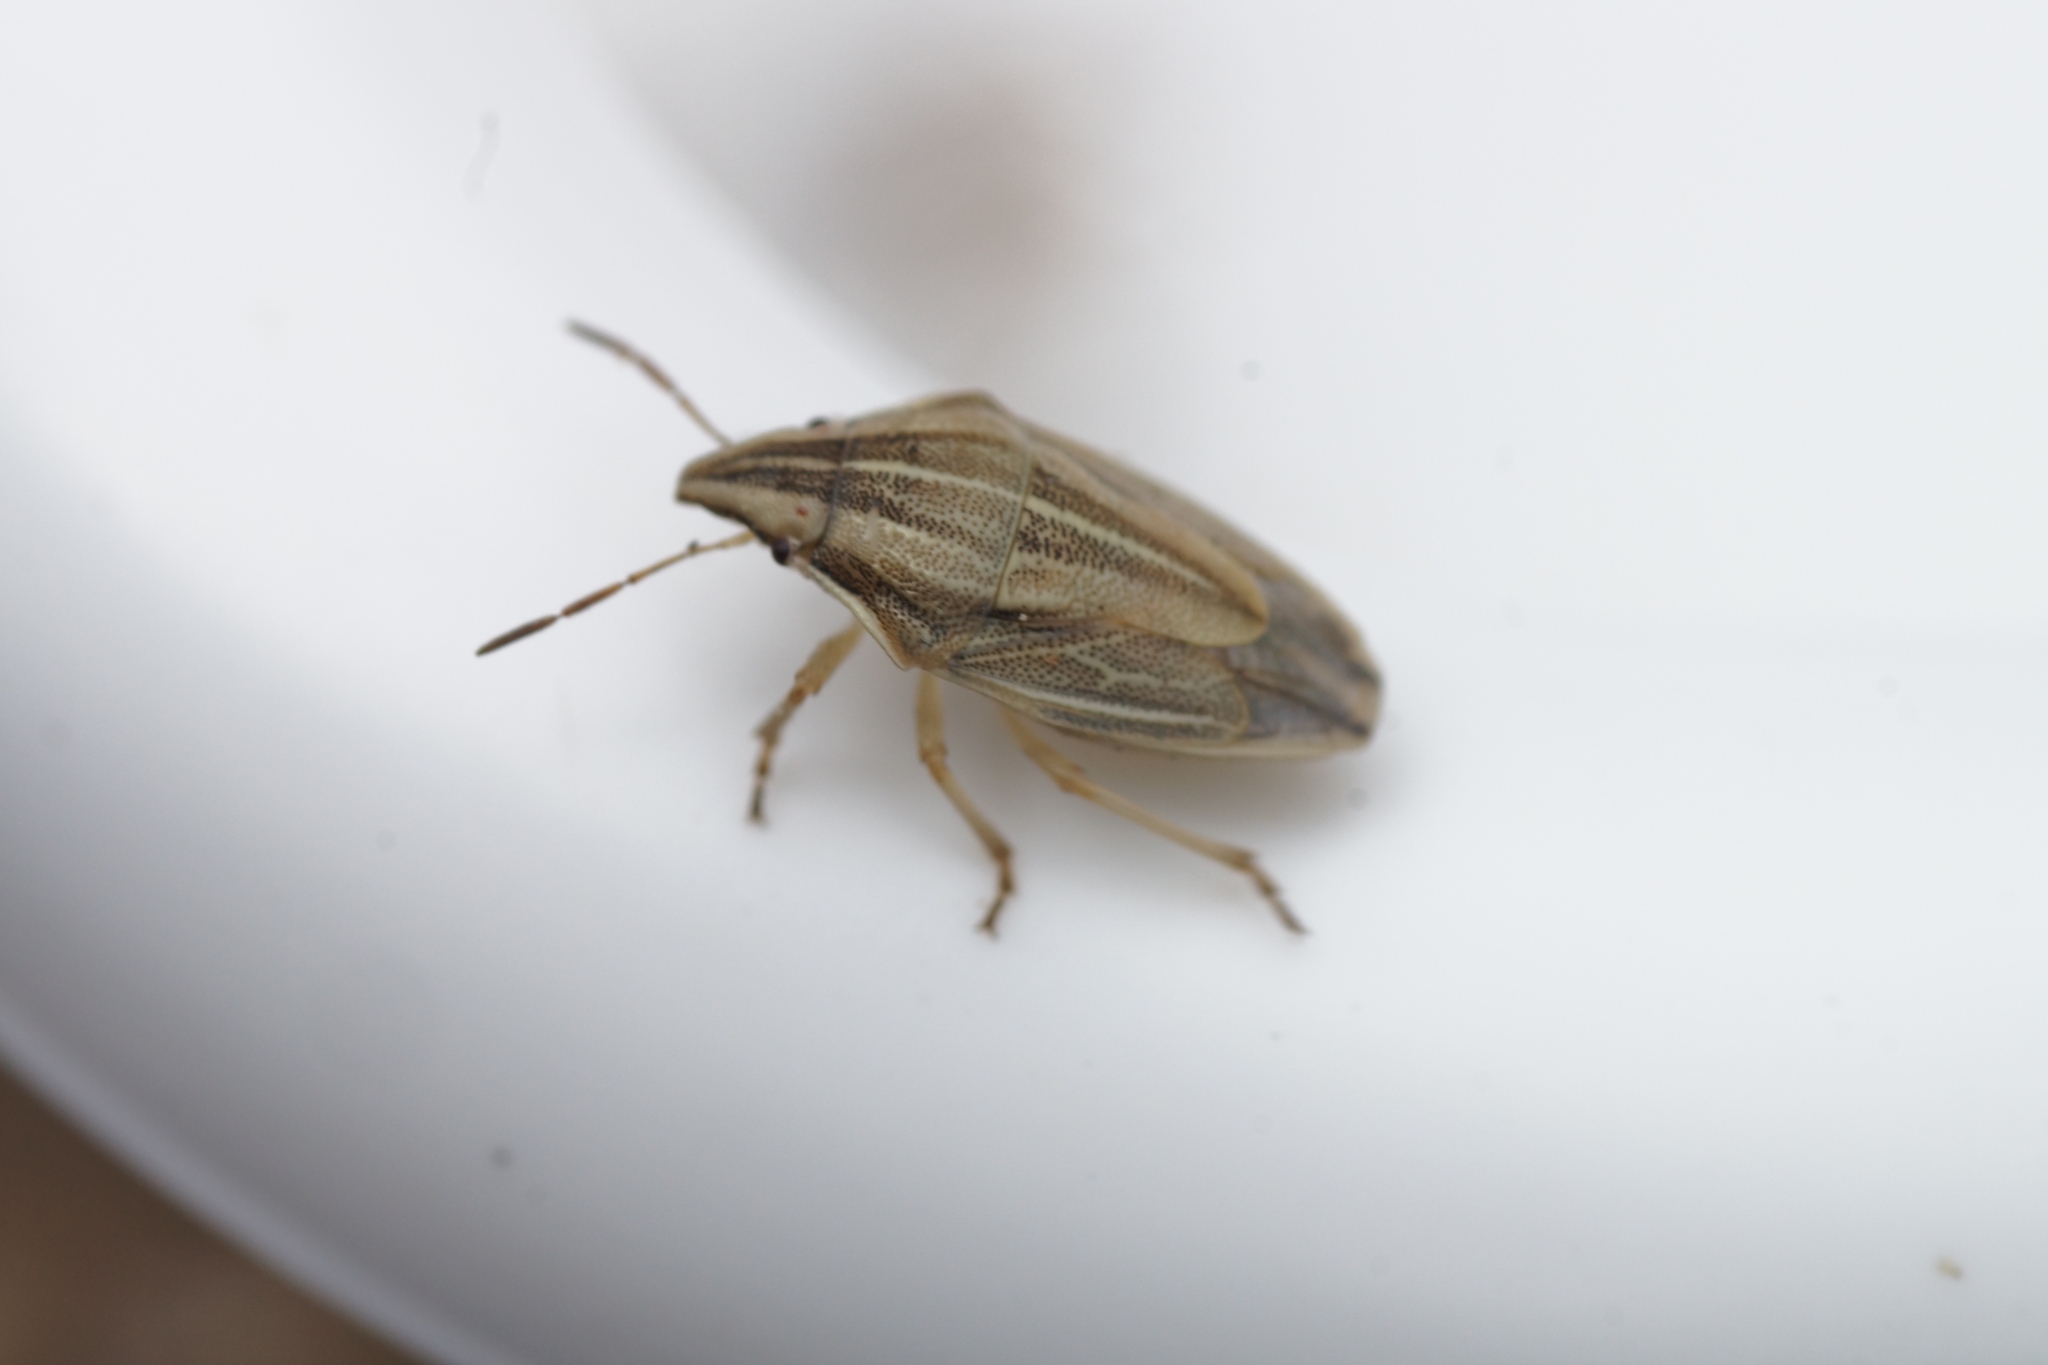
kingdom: Animalia
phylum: Arthropoda
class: Insecta
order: Hemiptera
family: Pentatomidae
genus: Aelia
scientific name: Aelia acuminata
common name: Bishop's mitre
